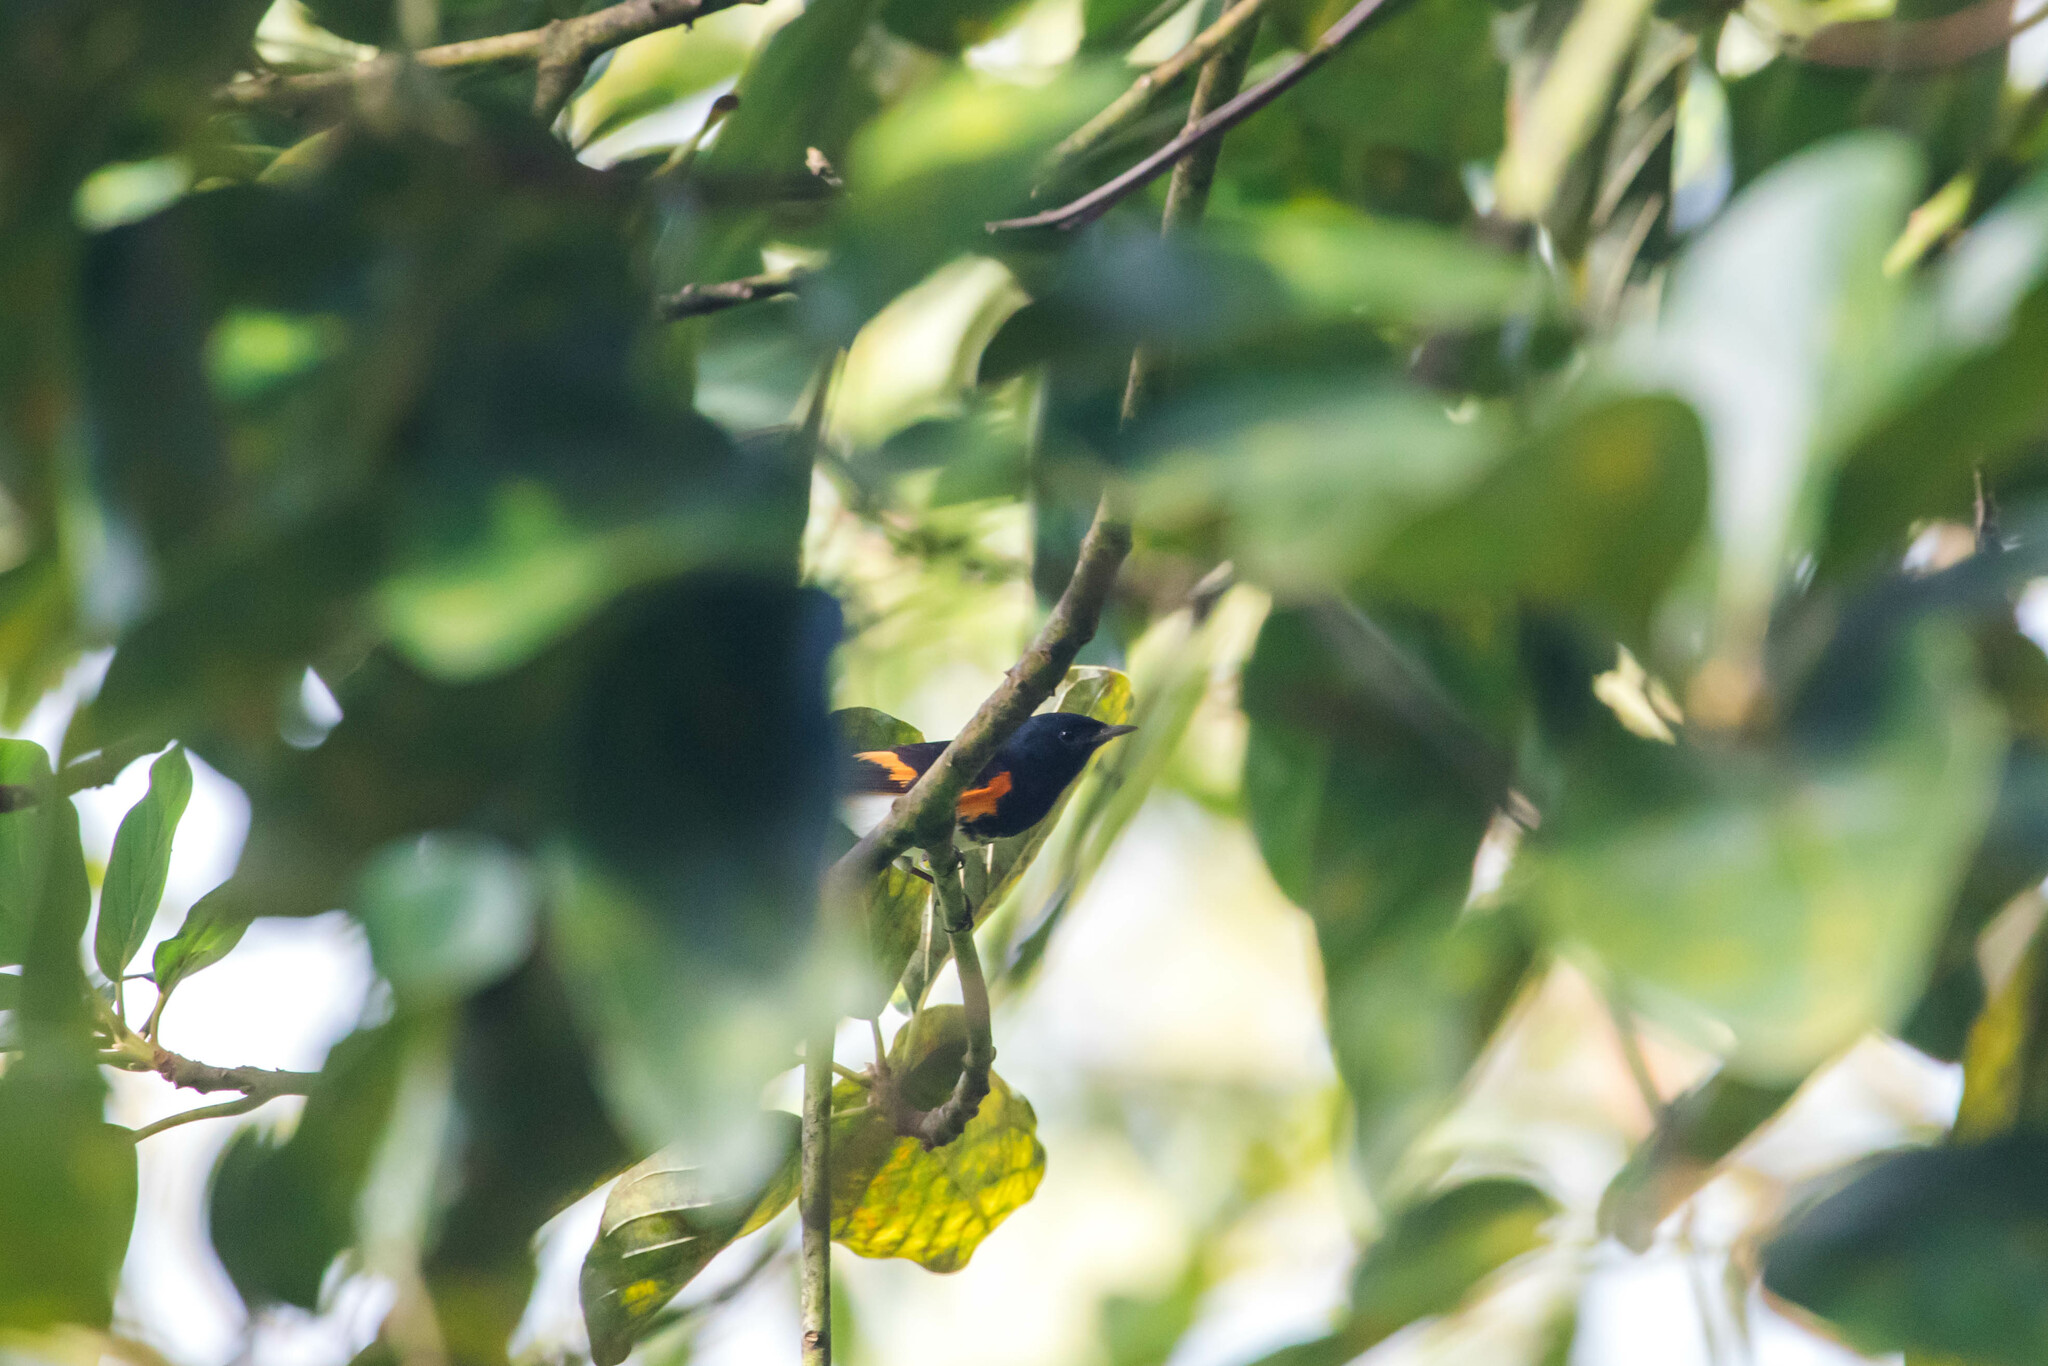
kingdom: Animalia
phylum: Chordata
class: Aves
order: Passeriformes
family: Parulidae
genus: Setophaga
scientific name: Setophaga ruticilla
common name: American redstart
